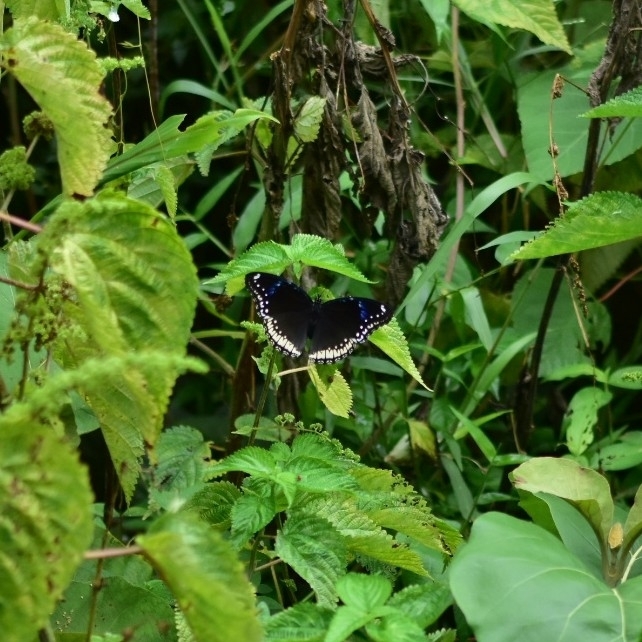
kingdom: Animalia
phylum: Arthropoda
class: Insecta
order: Lepidoptera
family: Nymphalidae
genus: Hypolimnas
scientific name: Hypolimnas bolina
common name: Great eggfly
